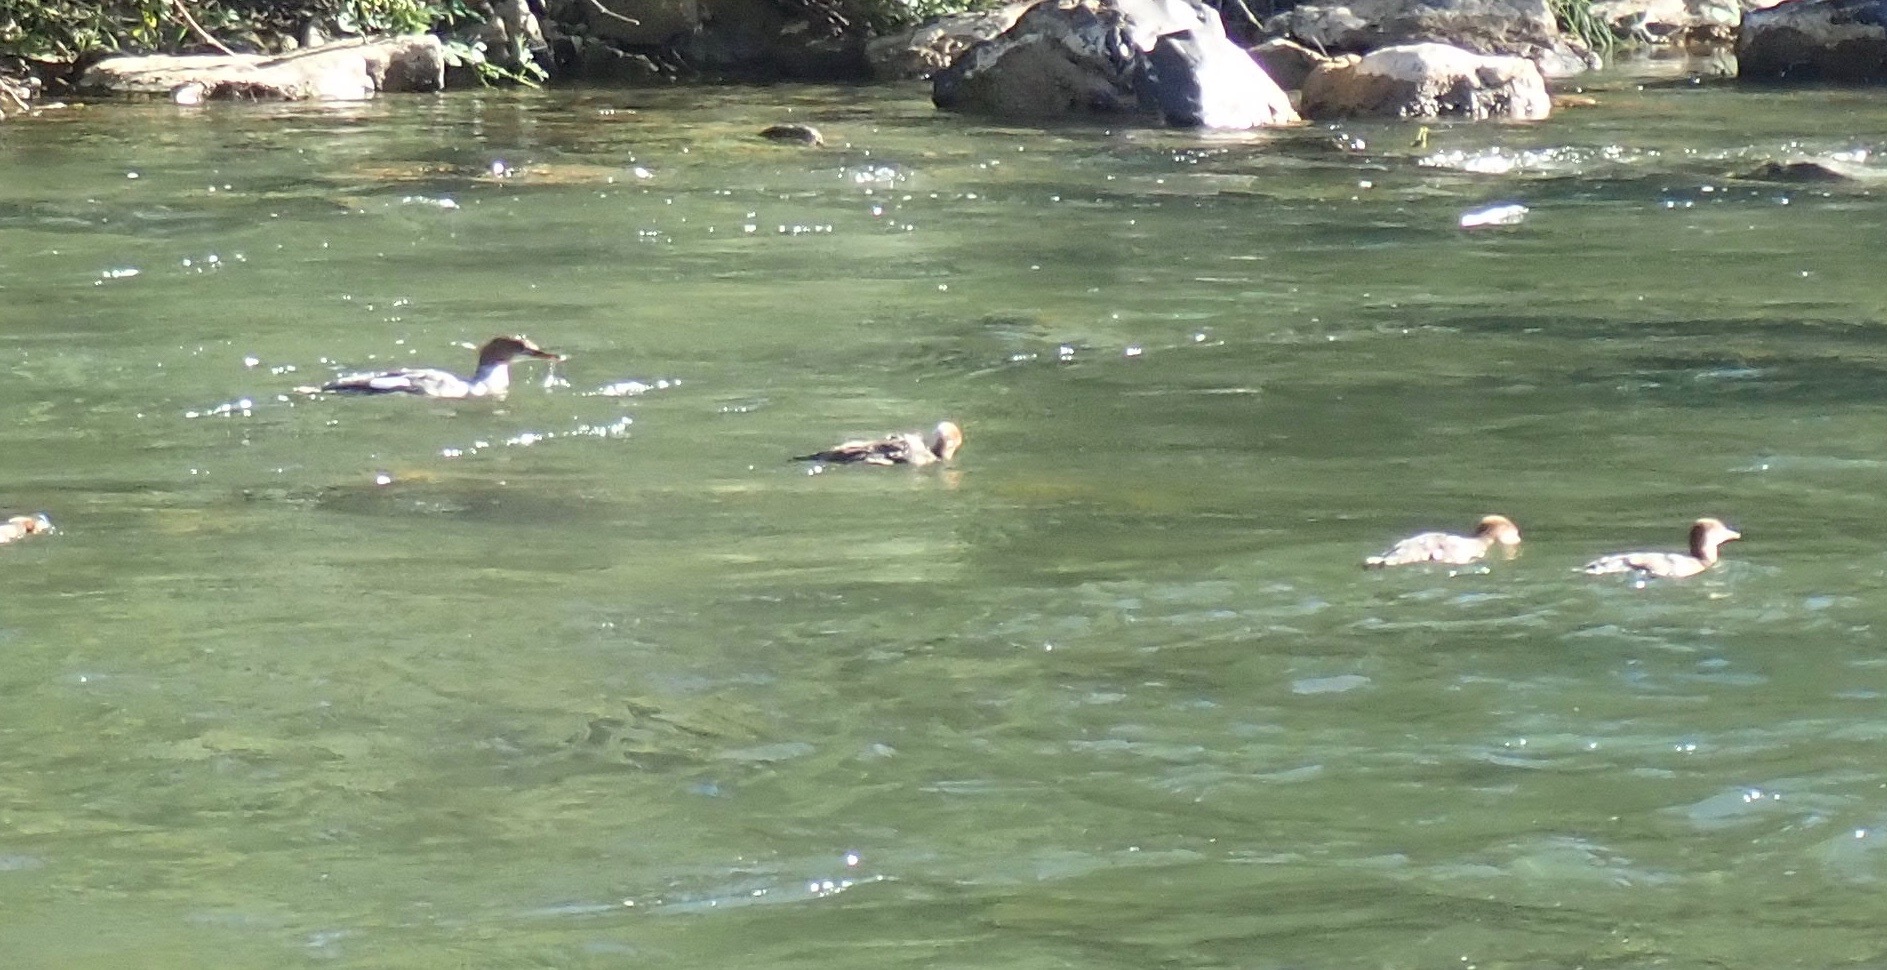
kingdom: Animalia
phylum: Chordata
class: Aves
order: Anseriformes
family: Anatidae
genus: Mergus
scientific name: Mergus merganser
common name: Common merganser
